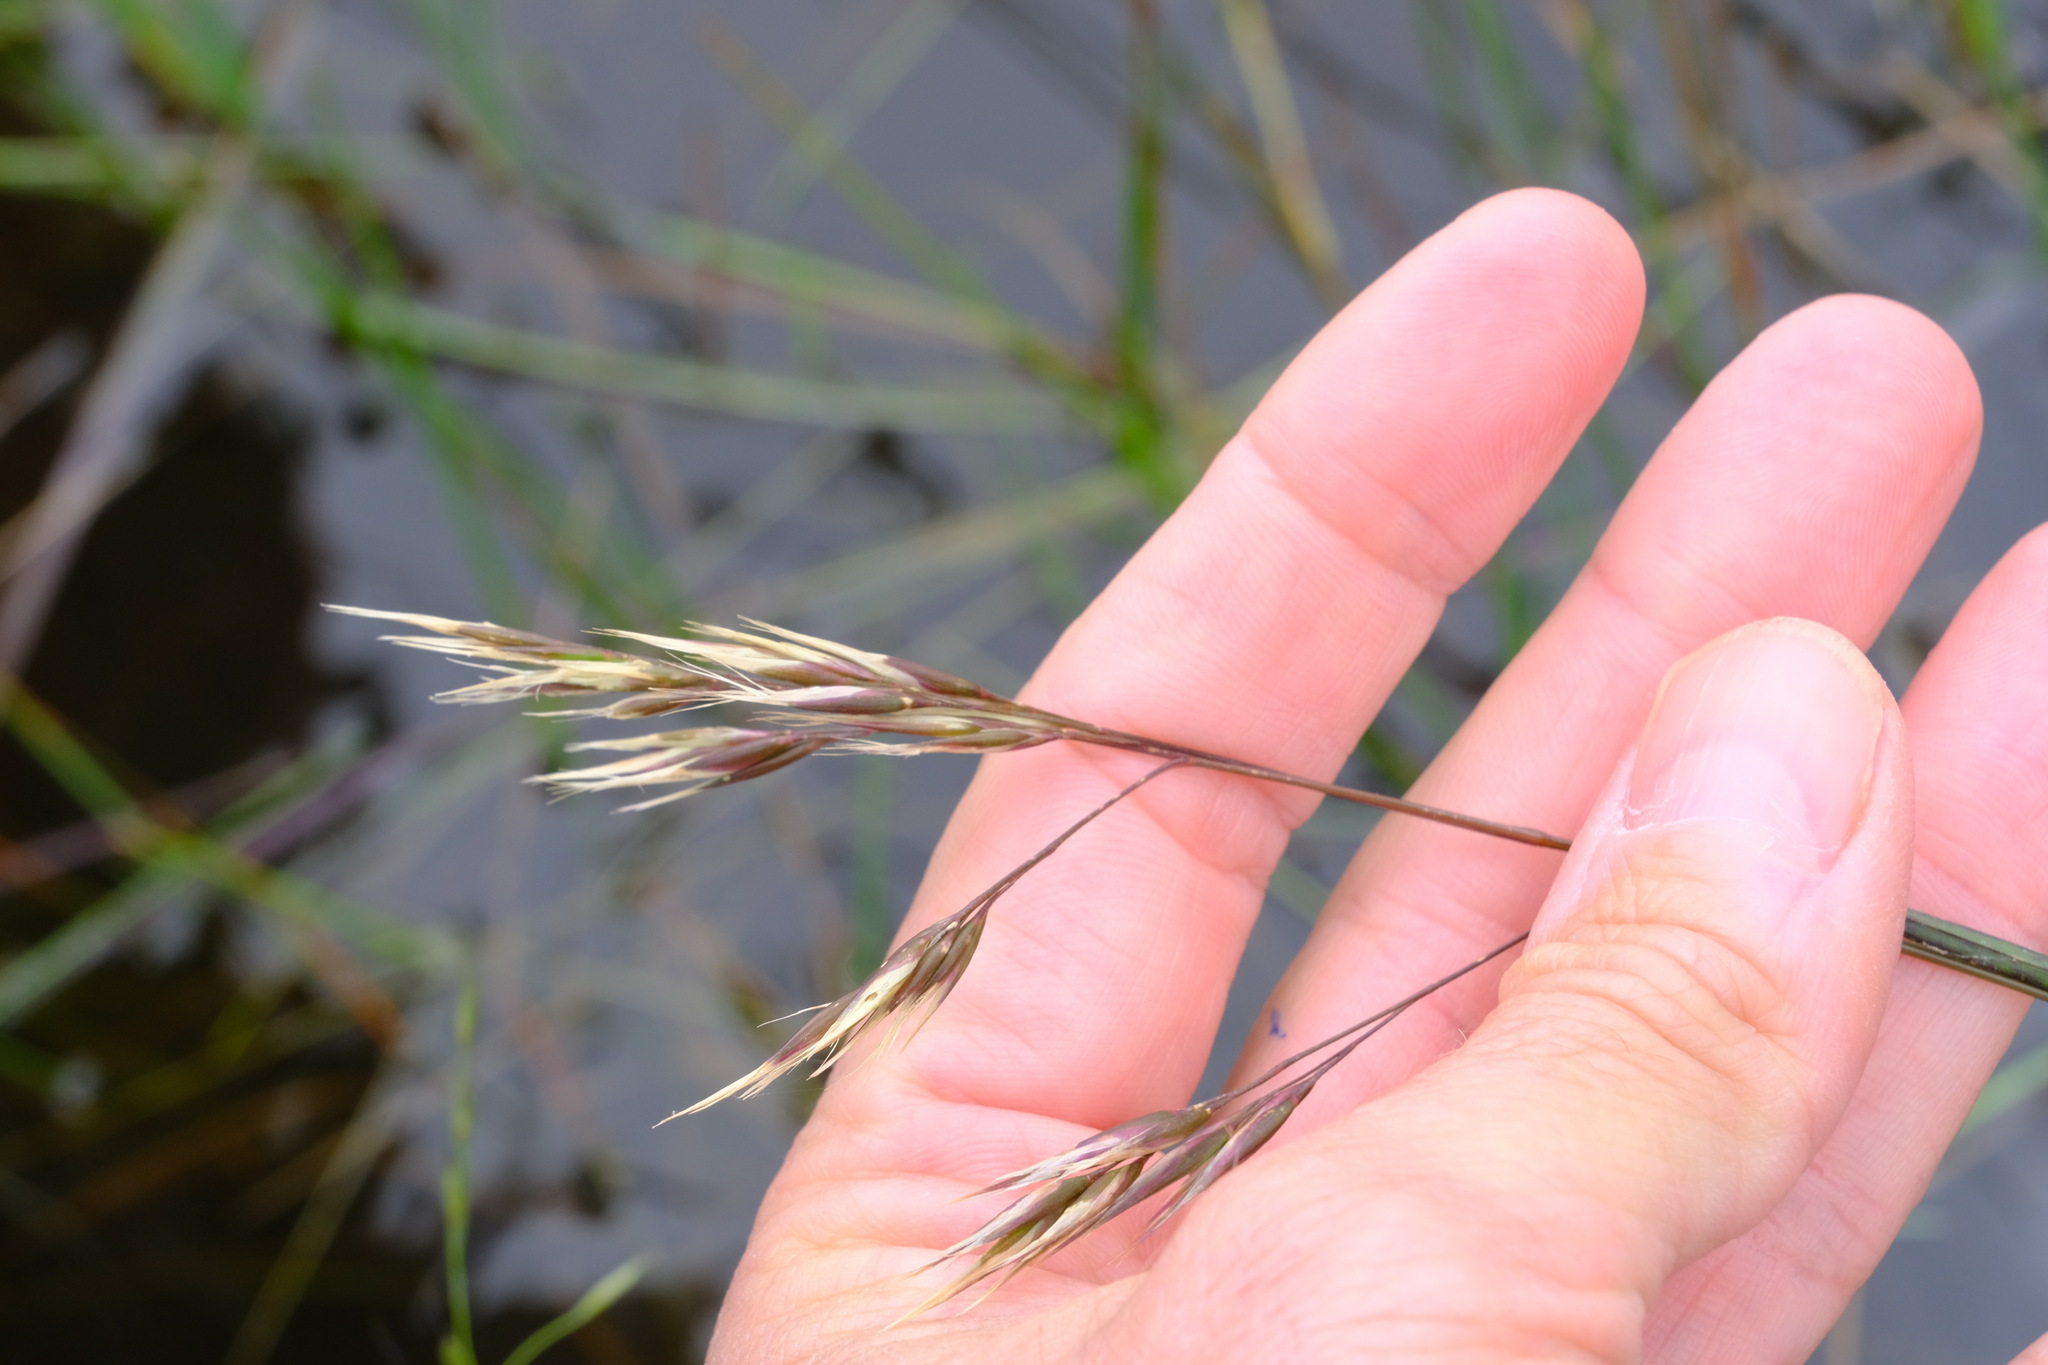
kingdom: Plantae
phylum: Tracheophyta
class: Liliopsida
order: Poales
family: Poaceae
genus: Rytidosperma
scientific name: Rytidosperma duttonianum
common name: Brown-black wallaby grass
